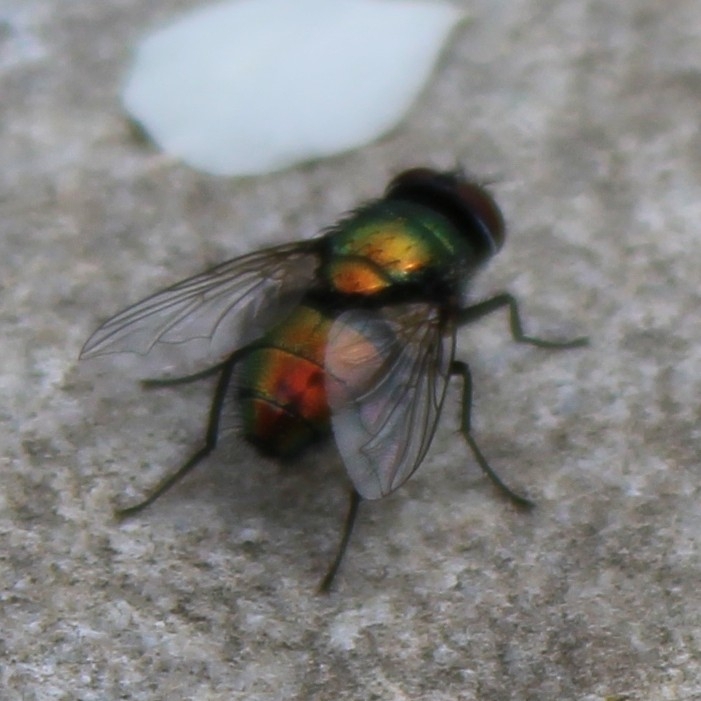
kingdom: Animalia
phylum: Arthropoda
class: Insecta
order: Diptera
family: Calliphoridae
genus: Lucilia
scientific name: Lucilia sericata
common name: Blow fly
